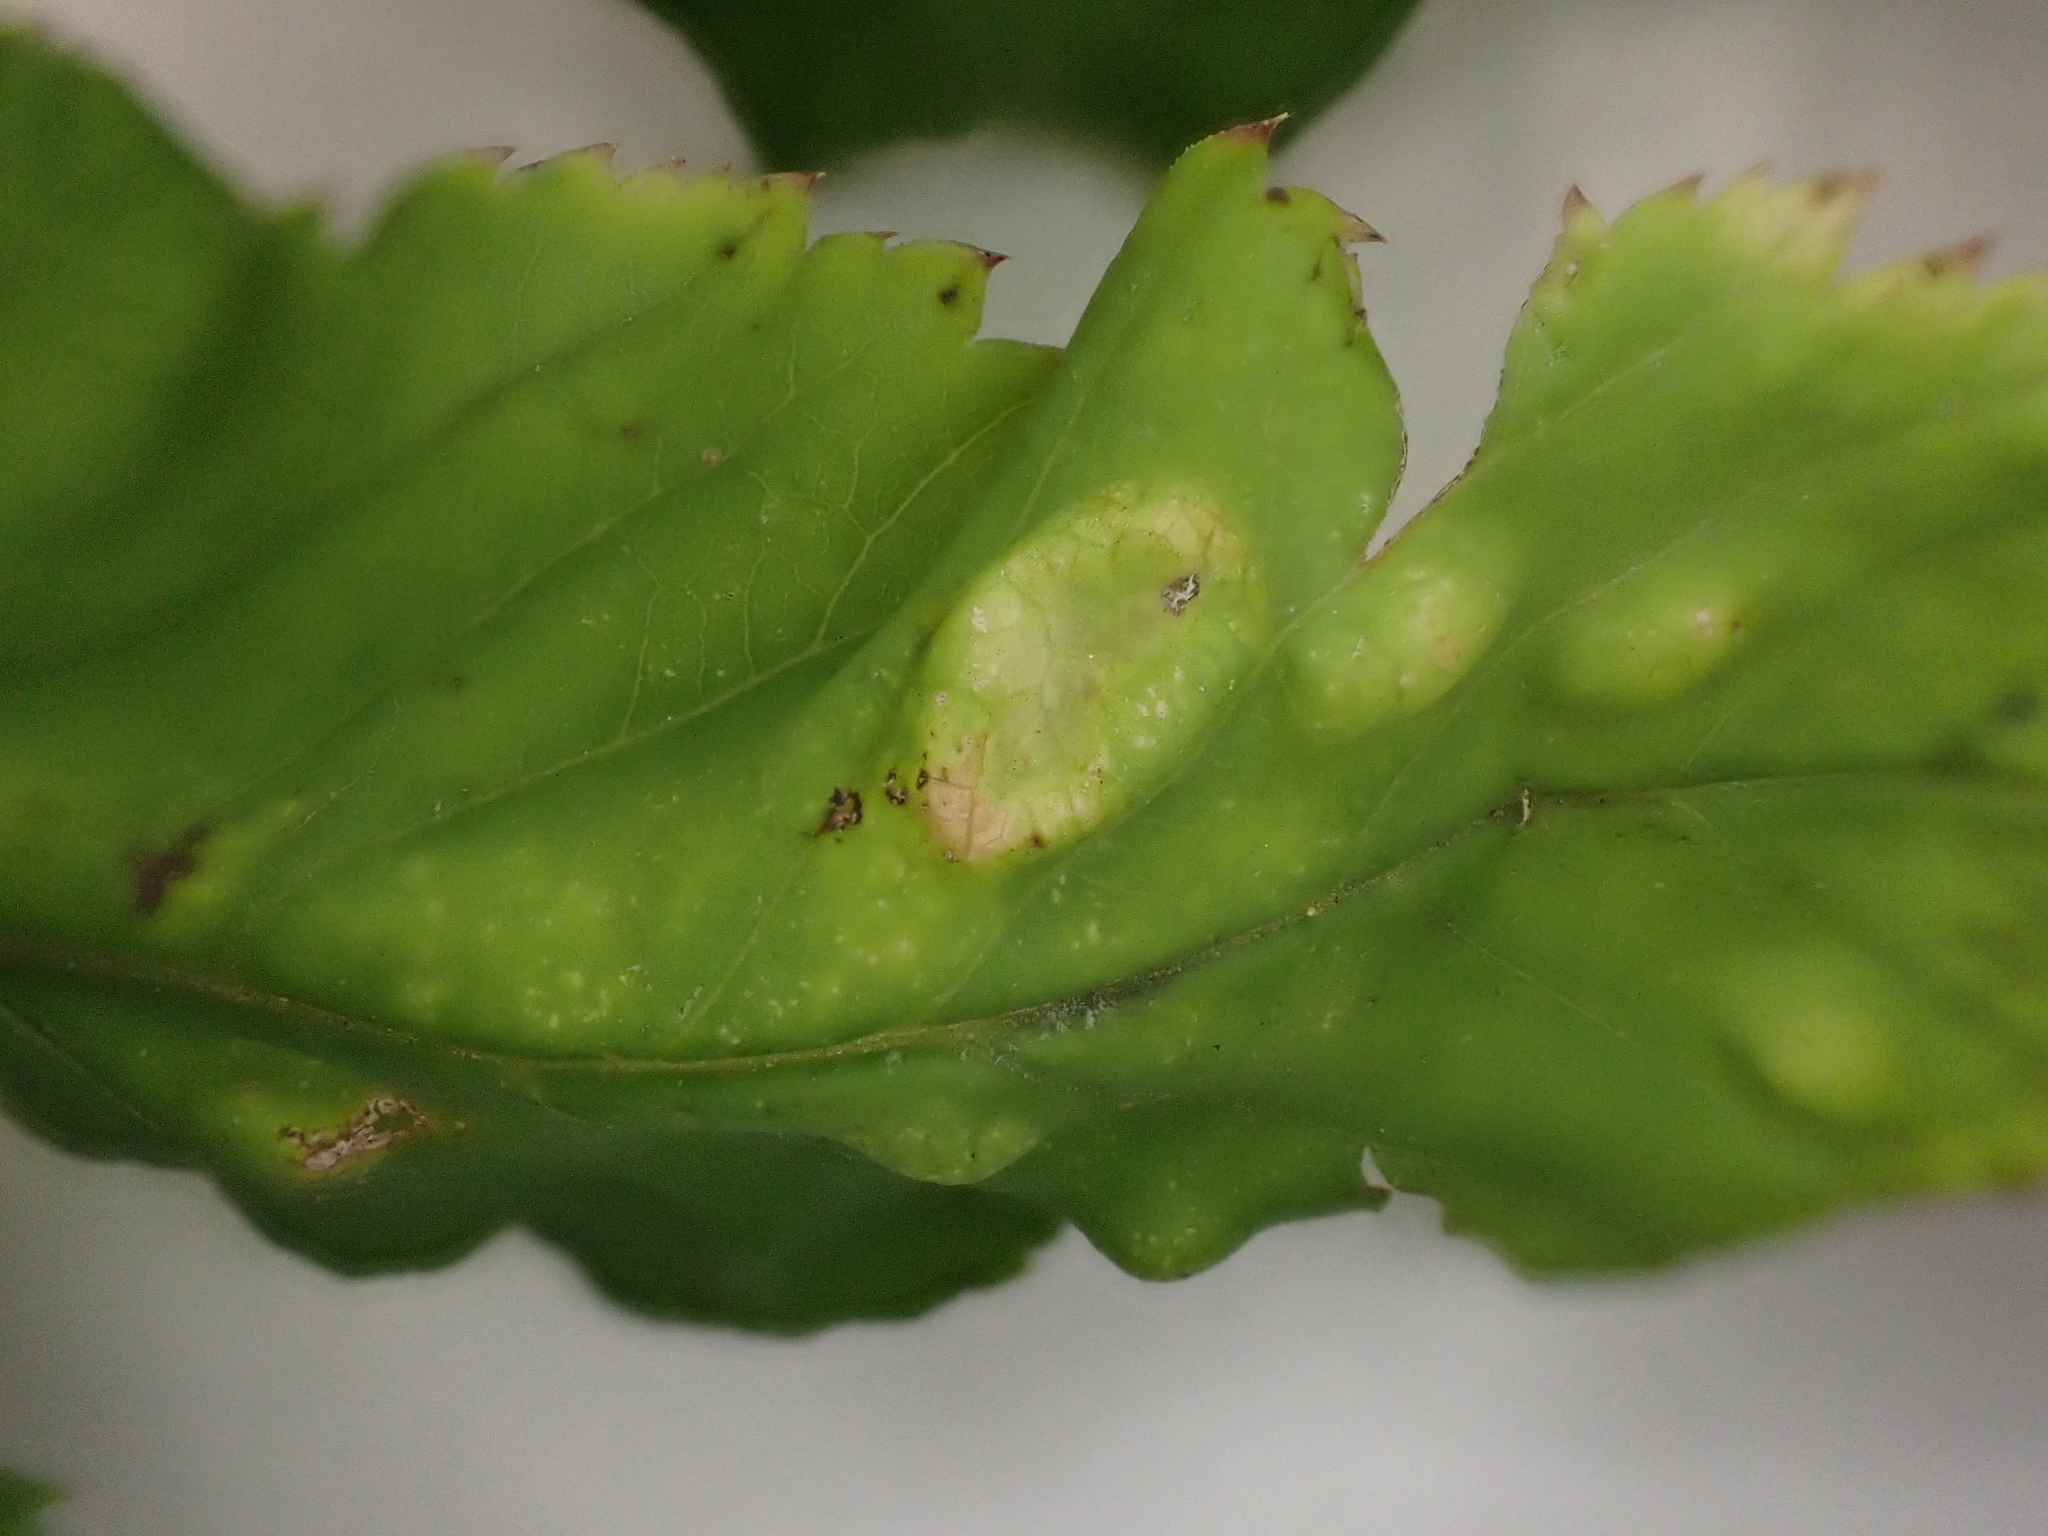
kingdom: Animalia
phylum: Arthropoda
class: Insecta
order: Hemiptera
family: Triozidae
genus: Trioza
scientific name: Trioza flavipennis
